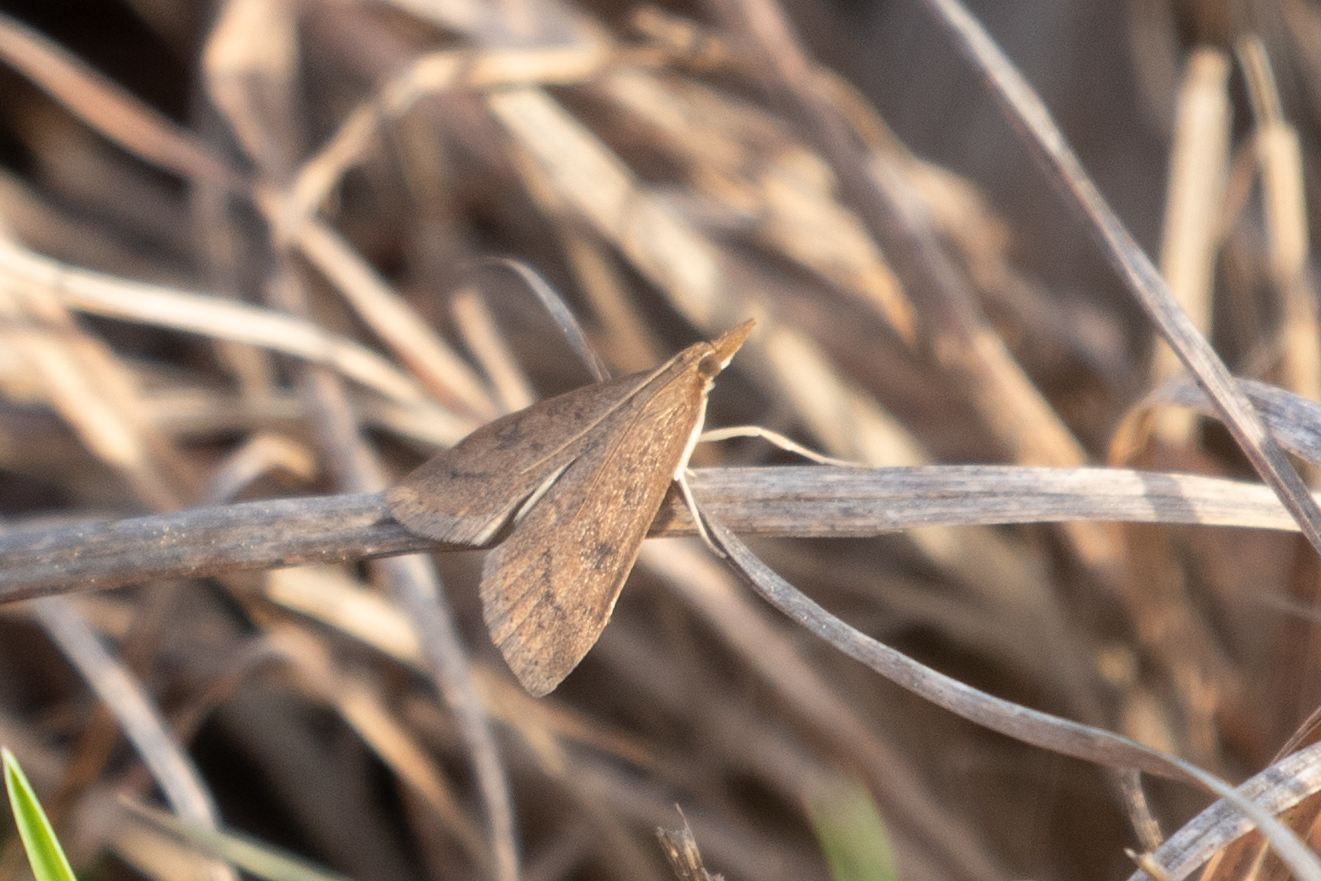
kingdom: Animalia
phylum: Arthropoda
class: Insecta
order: Lepidoptera
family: Crambidae
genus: Udea
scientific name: Udea rubigalis
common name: Celery leaftier moth
